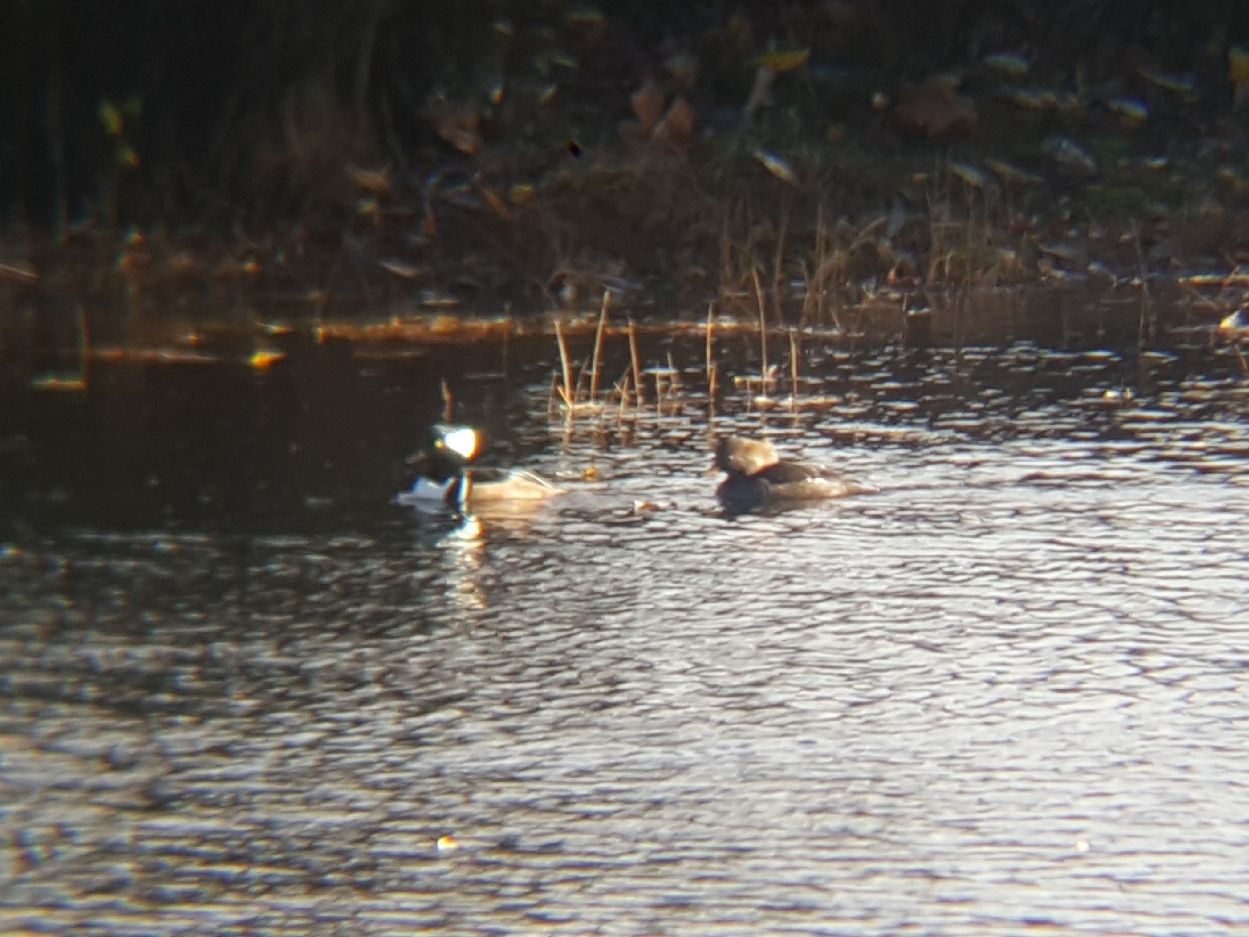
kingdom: Animalia
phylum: Chordata
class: Aves
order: Anseriformes
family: Anatidae
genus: Lophodytes
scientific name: Lophodytes cucullatus
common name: Hooded merganser
